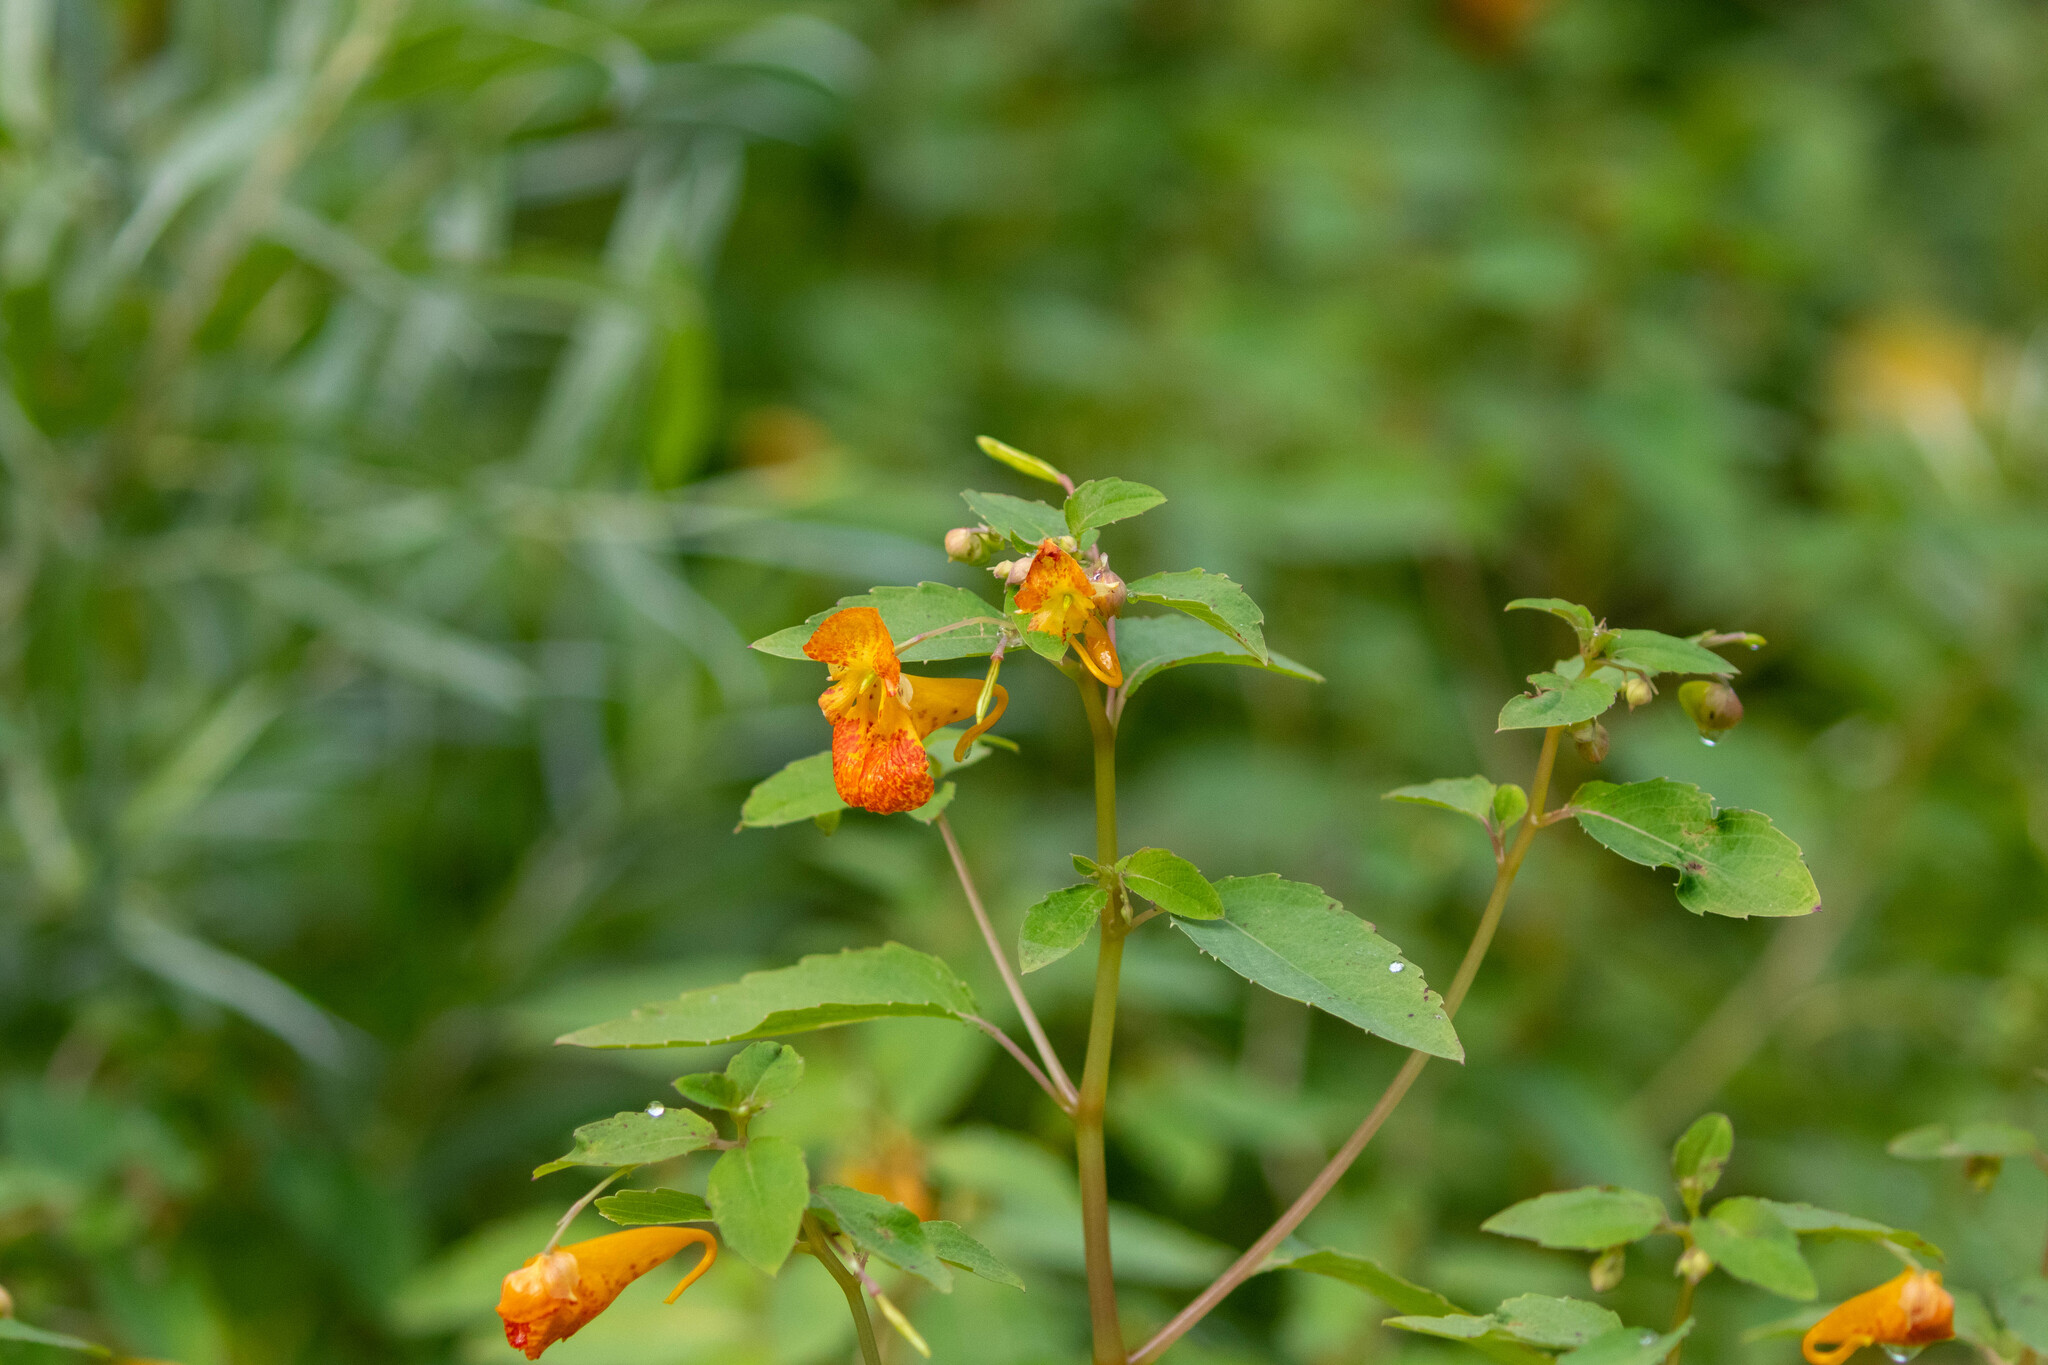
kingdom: Plantae
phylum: Tracheophyta
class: Magnoliopsida
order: Ericales
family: Balsaminaceae
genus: Impatiens
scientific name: Impatiens capensis
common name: Orange balsam
